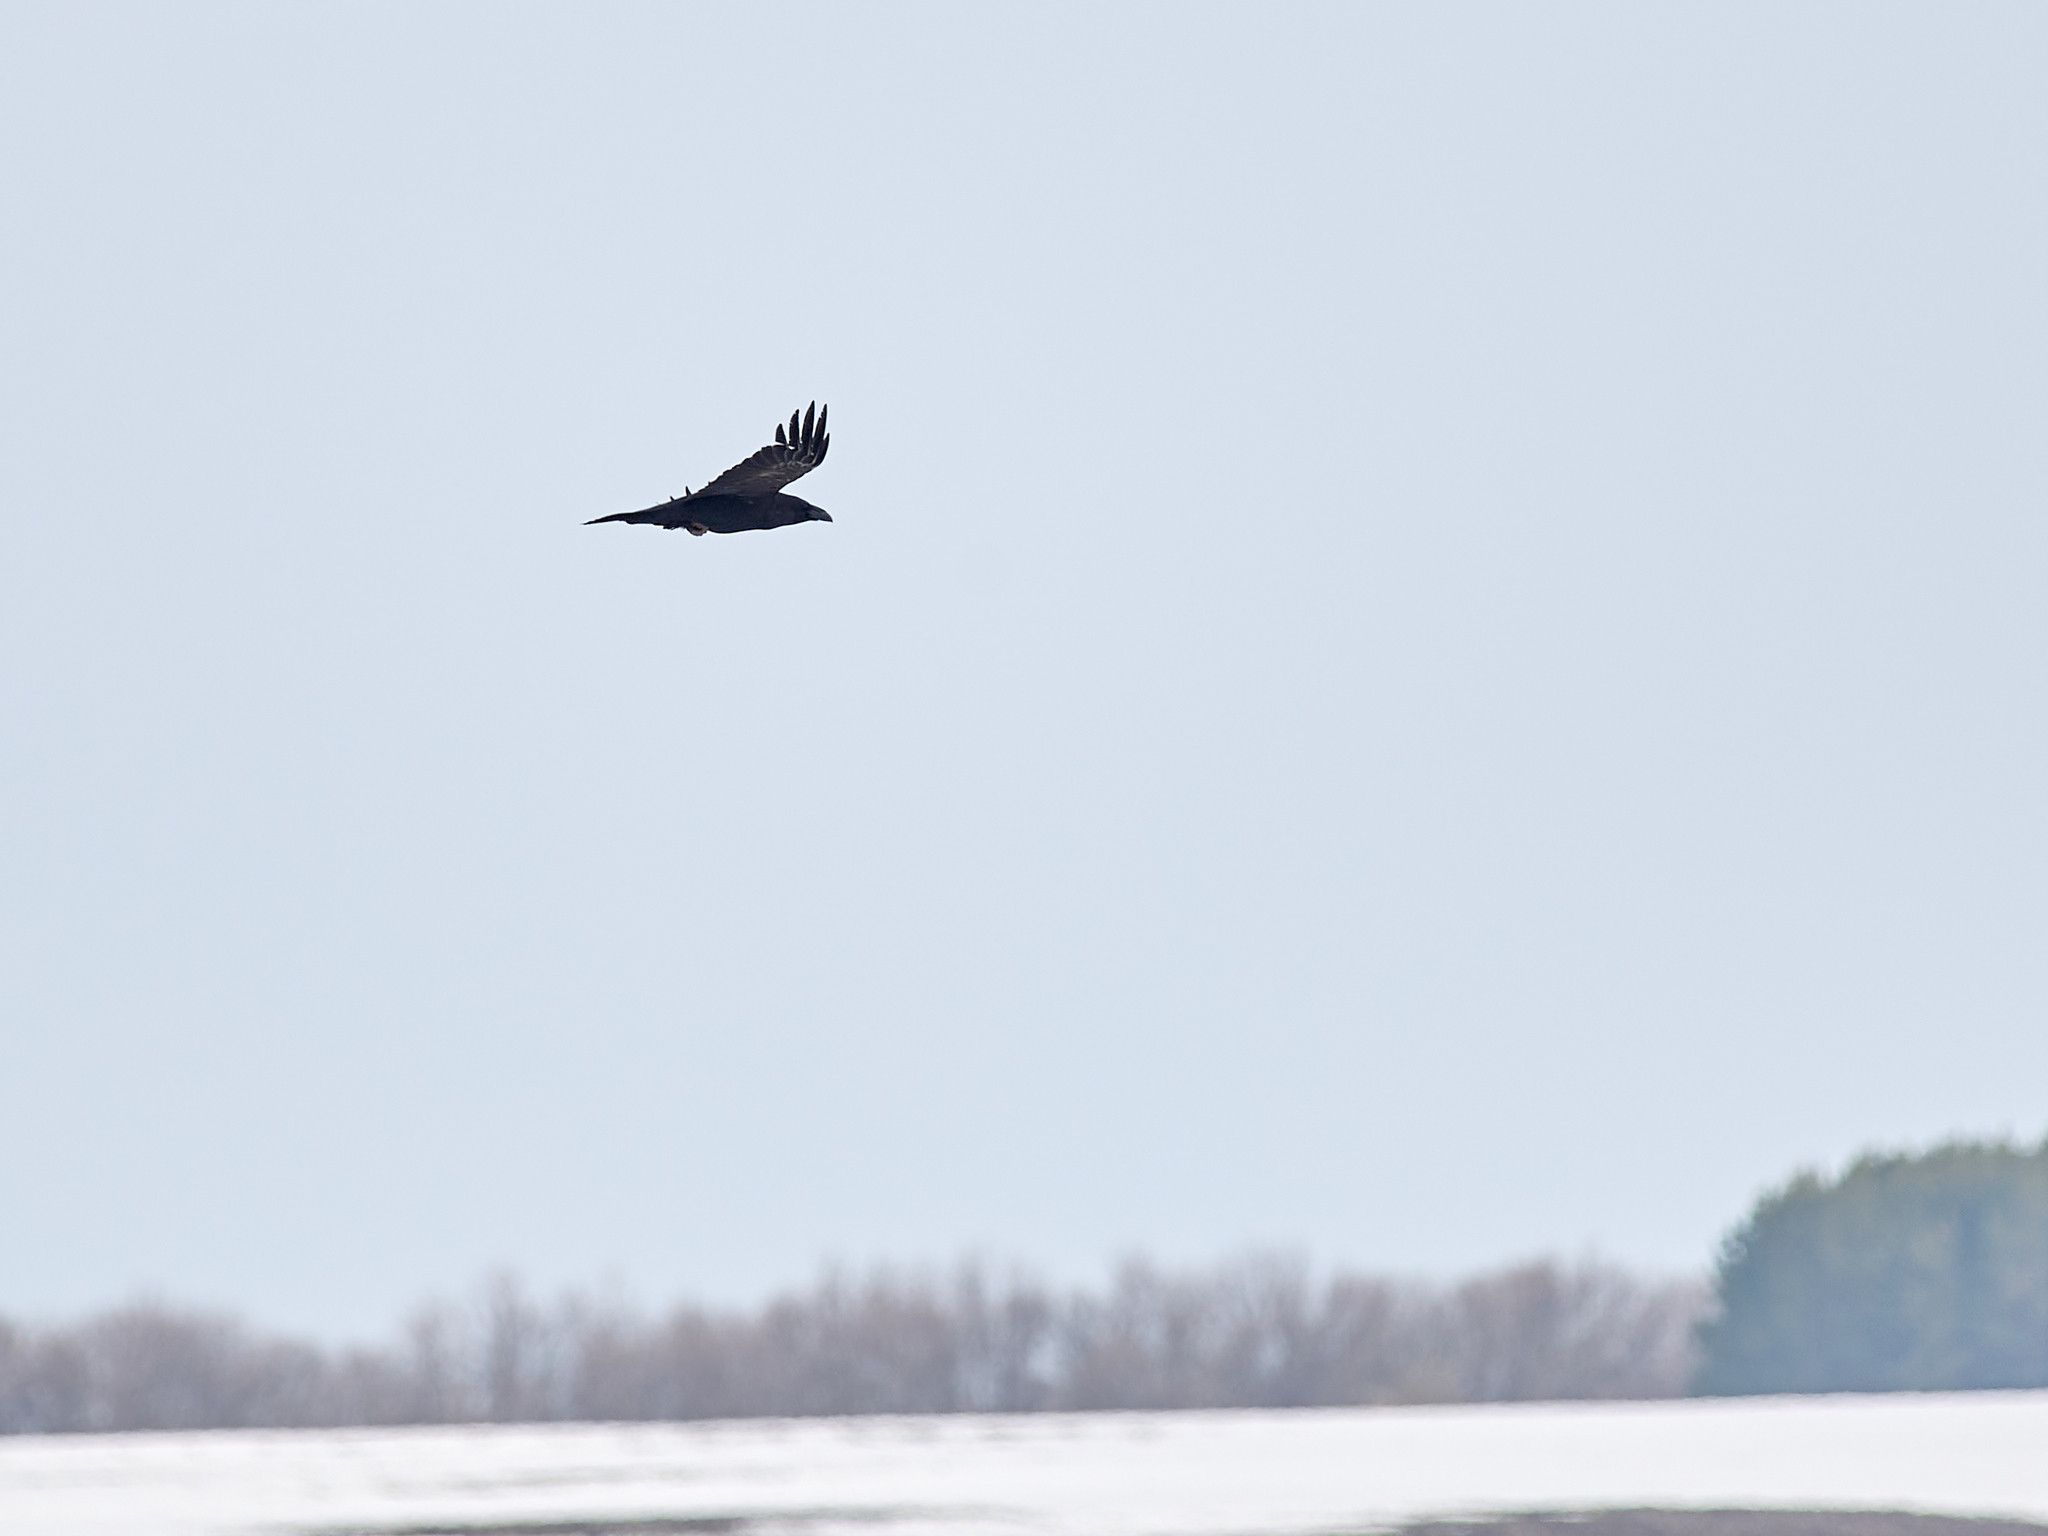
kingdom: Animalia
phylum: Chordata
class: Aves
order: Passeriformes
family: Corvidae
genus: Corvus
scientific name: Corvus corax
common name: Common raven
